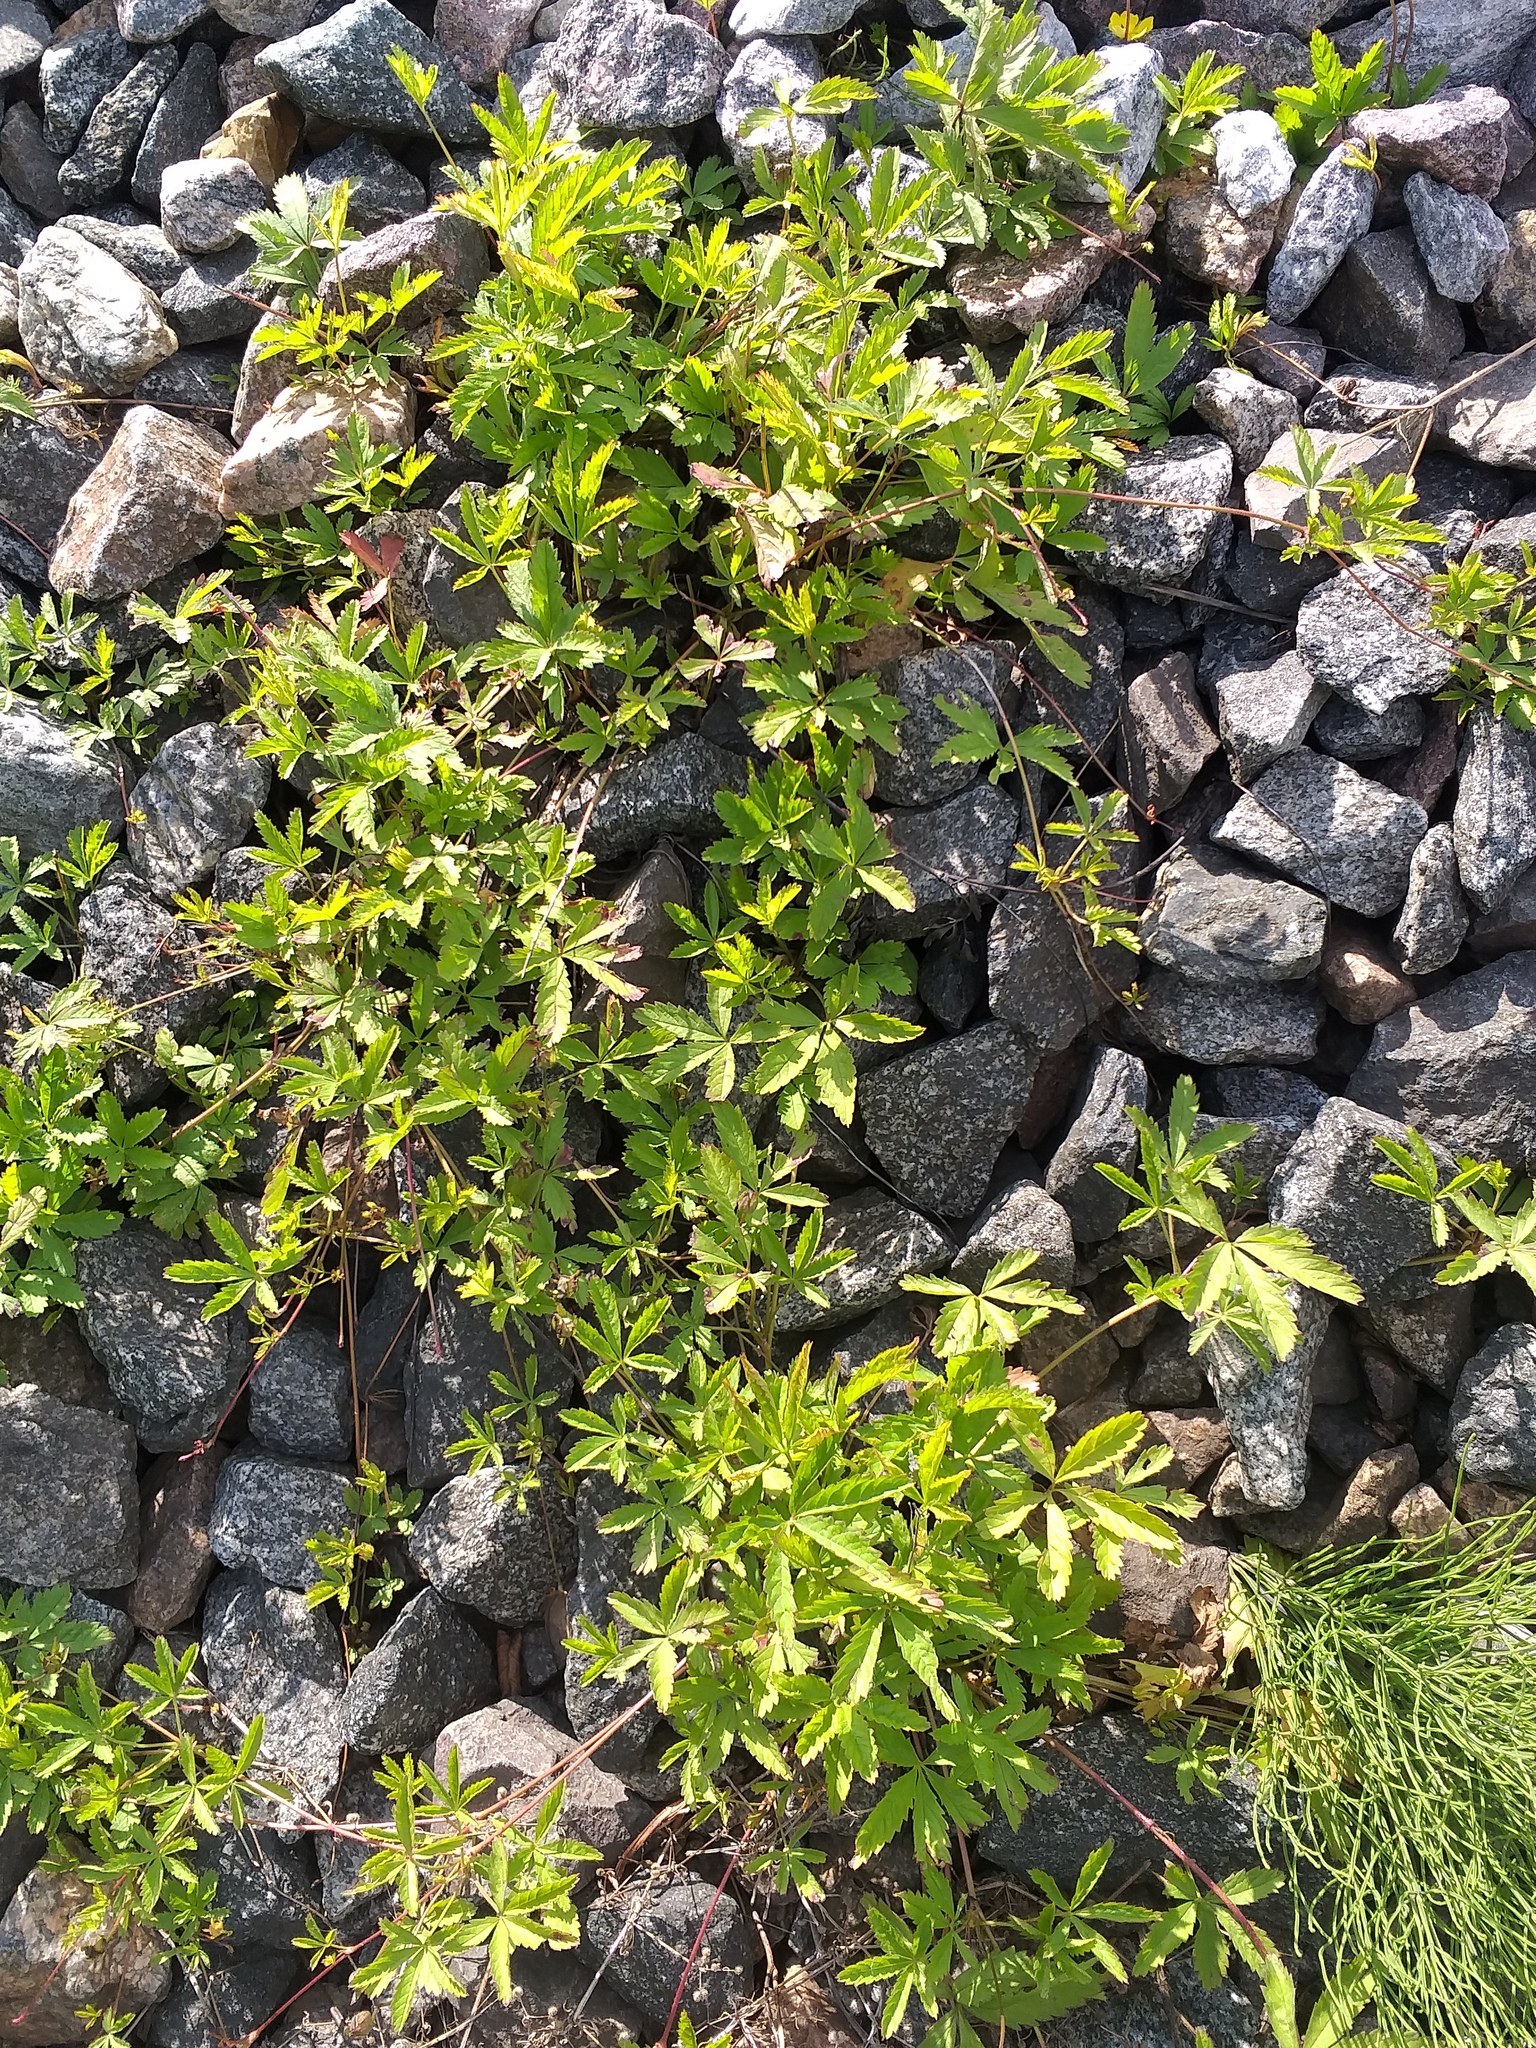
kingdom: Plantae
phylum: Tracheophyta
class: Magnoliopsida
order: Rosales
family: Rosaceae
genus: Potentilla
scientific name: Potentilla reptans
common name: Creeping cinquefoil
